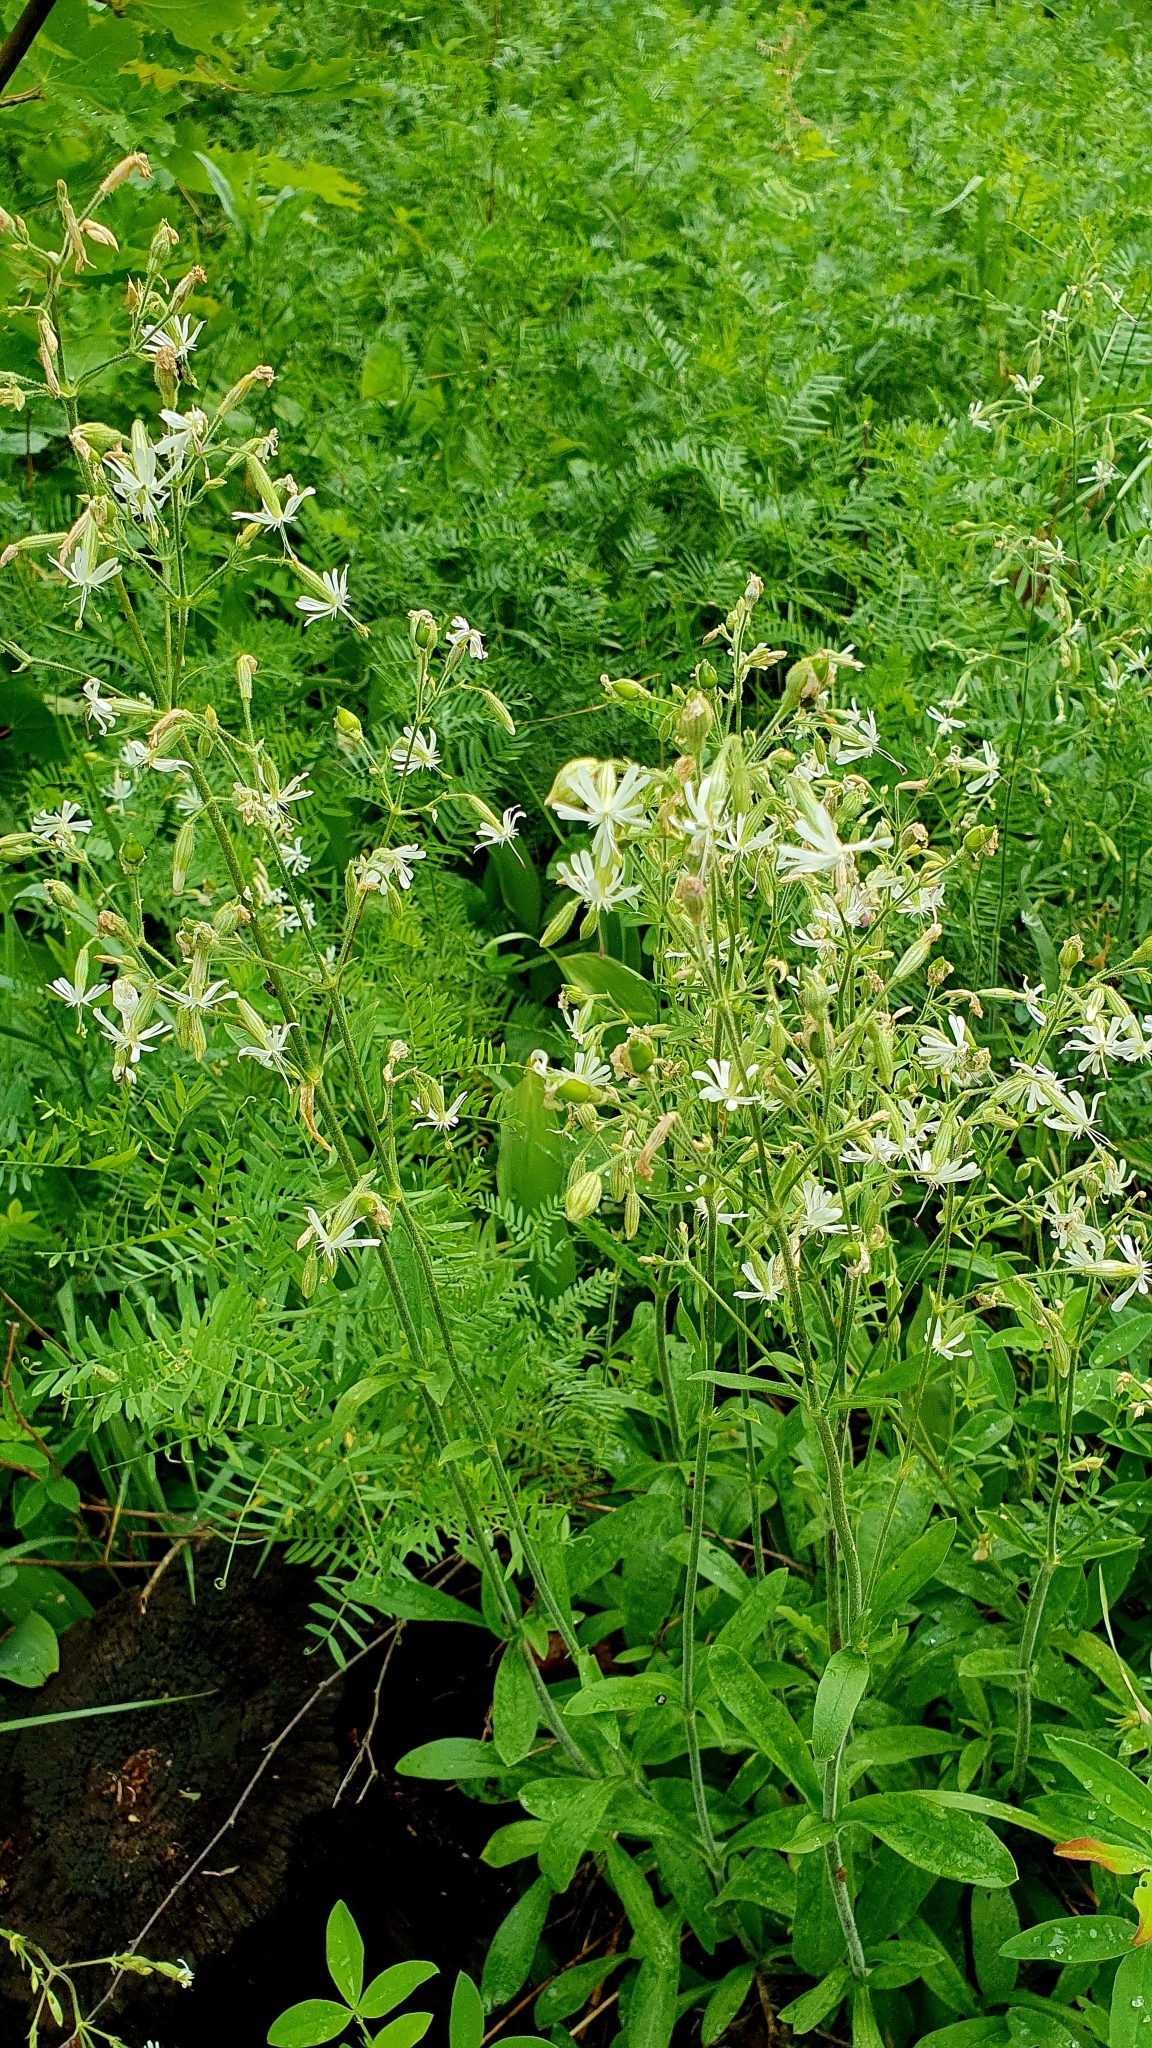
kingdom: Plantae
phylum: Tracheophyta
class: Magnoliopsida
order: Caryophyllales
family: Caryophyllaceae
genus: Silene
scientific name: Silene nutans
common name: Nottingham catchfly
